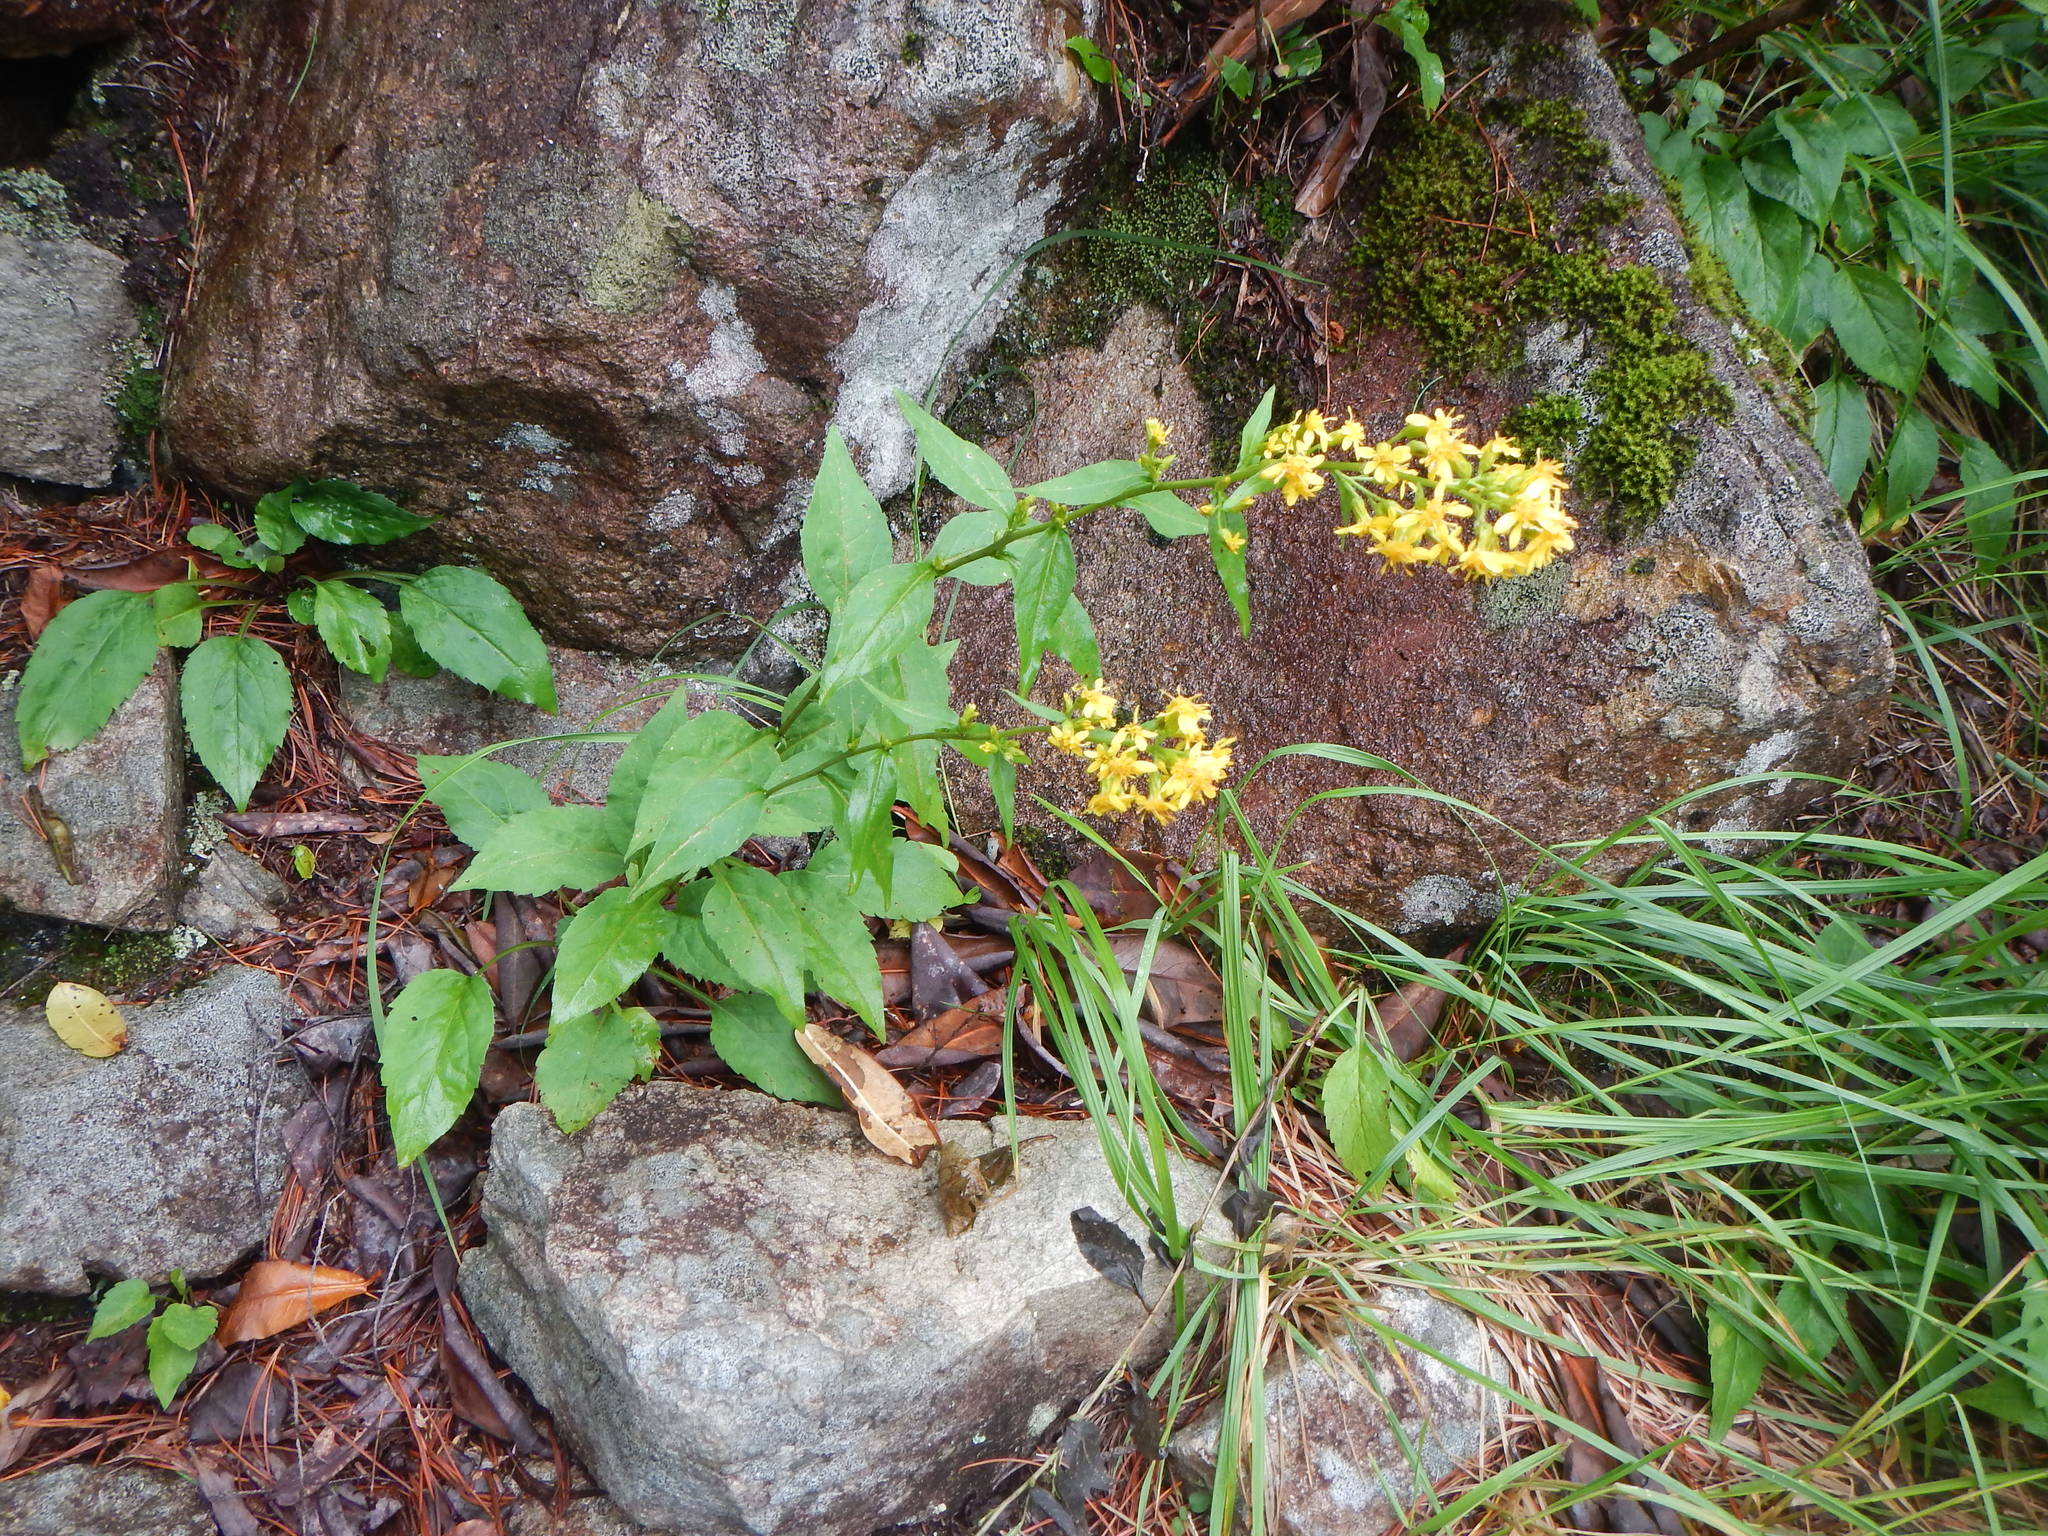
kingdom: Plantae
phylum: Tracheophyta
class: Magnoliopsida
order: Asterales
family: Asteraceae
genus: Solidago
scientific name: Solidago virgaurea
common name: Goldenrod
